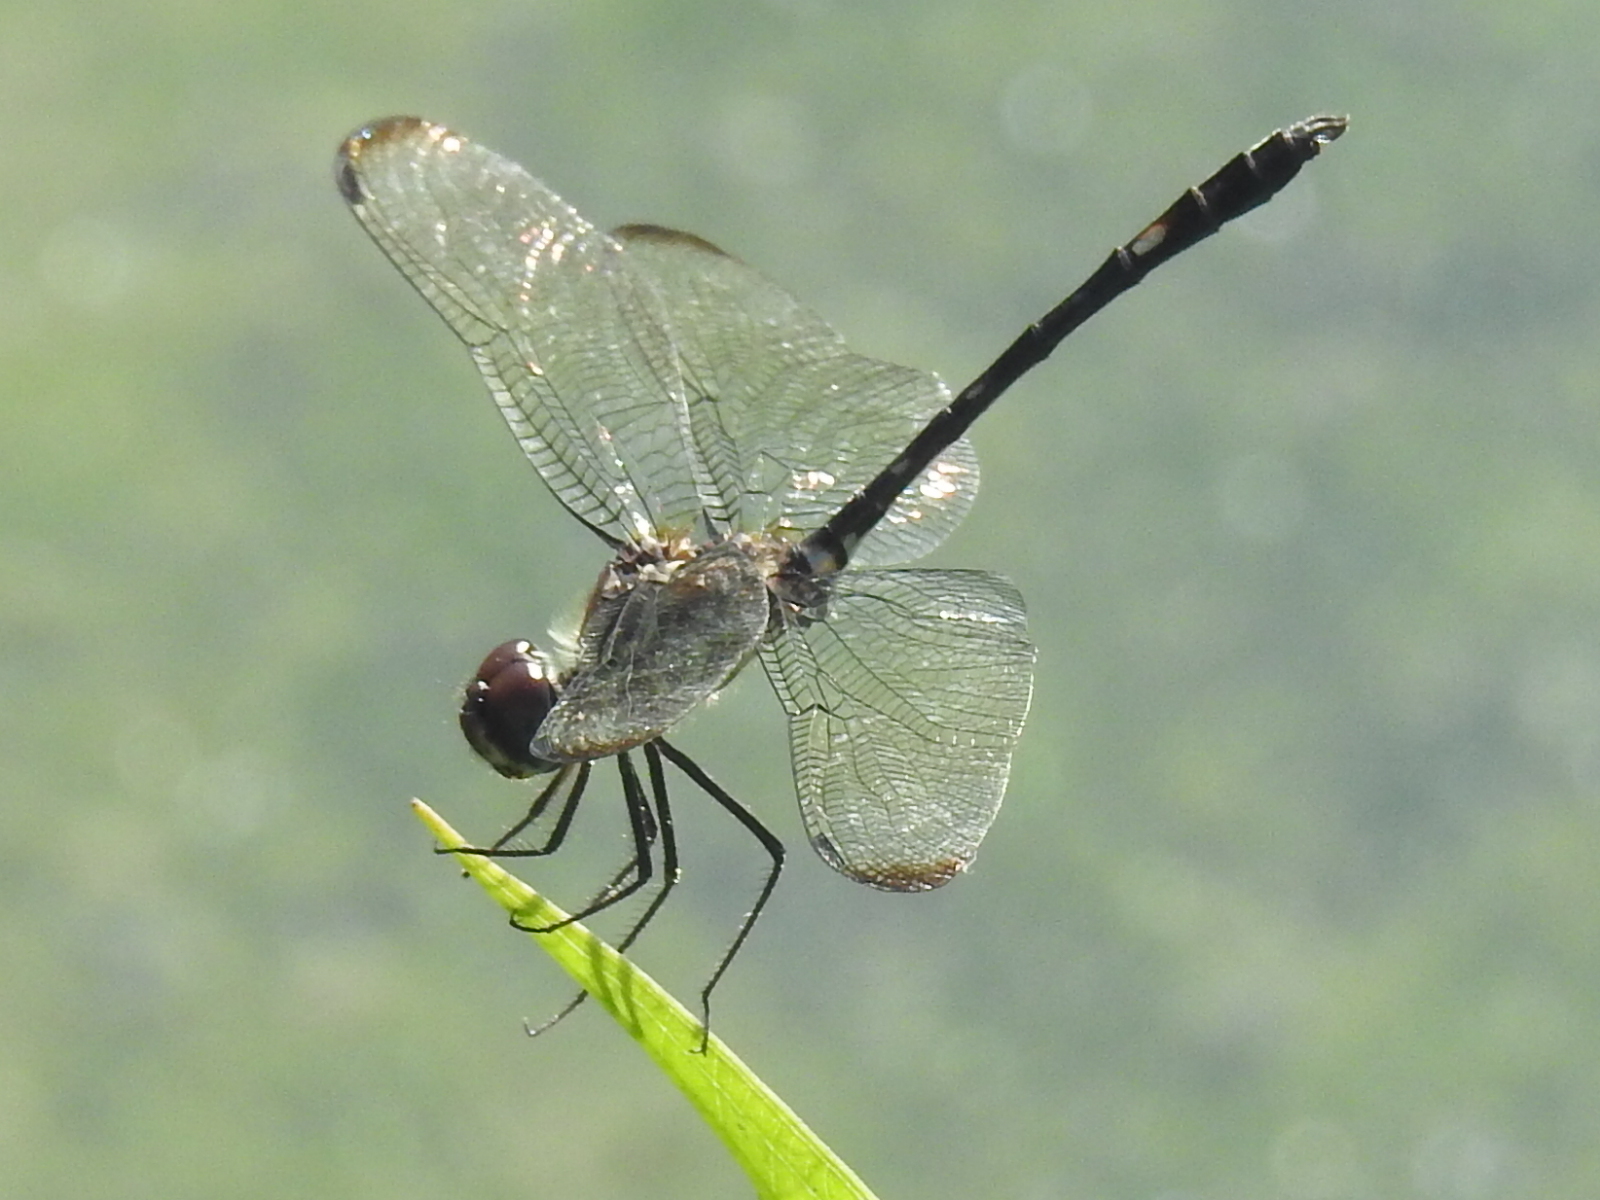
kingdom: Animalia
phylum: Arthropoda
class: Insecta
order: Odonata
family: Libellulidae
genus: Dythemis
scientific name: Dythemis velox
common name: Swift setwing
